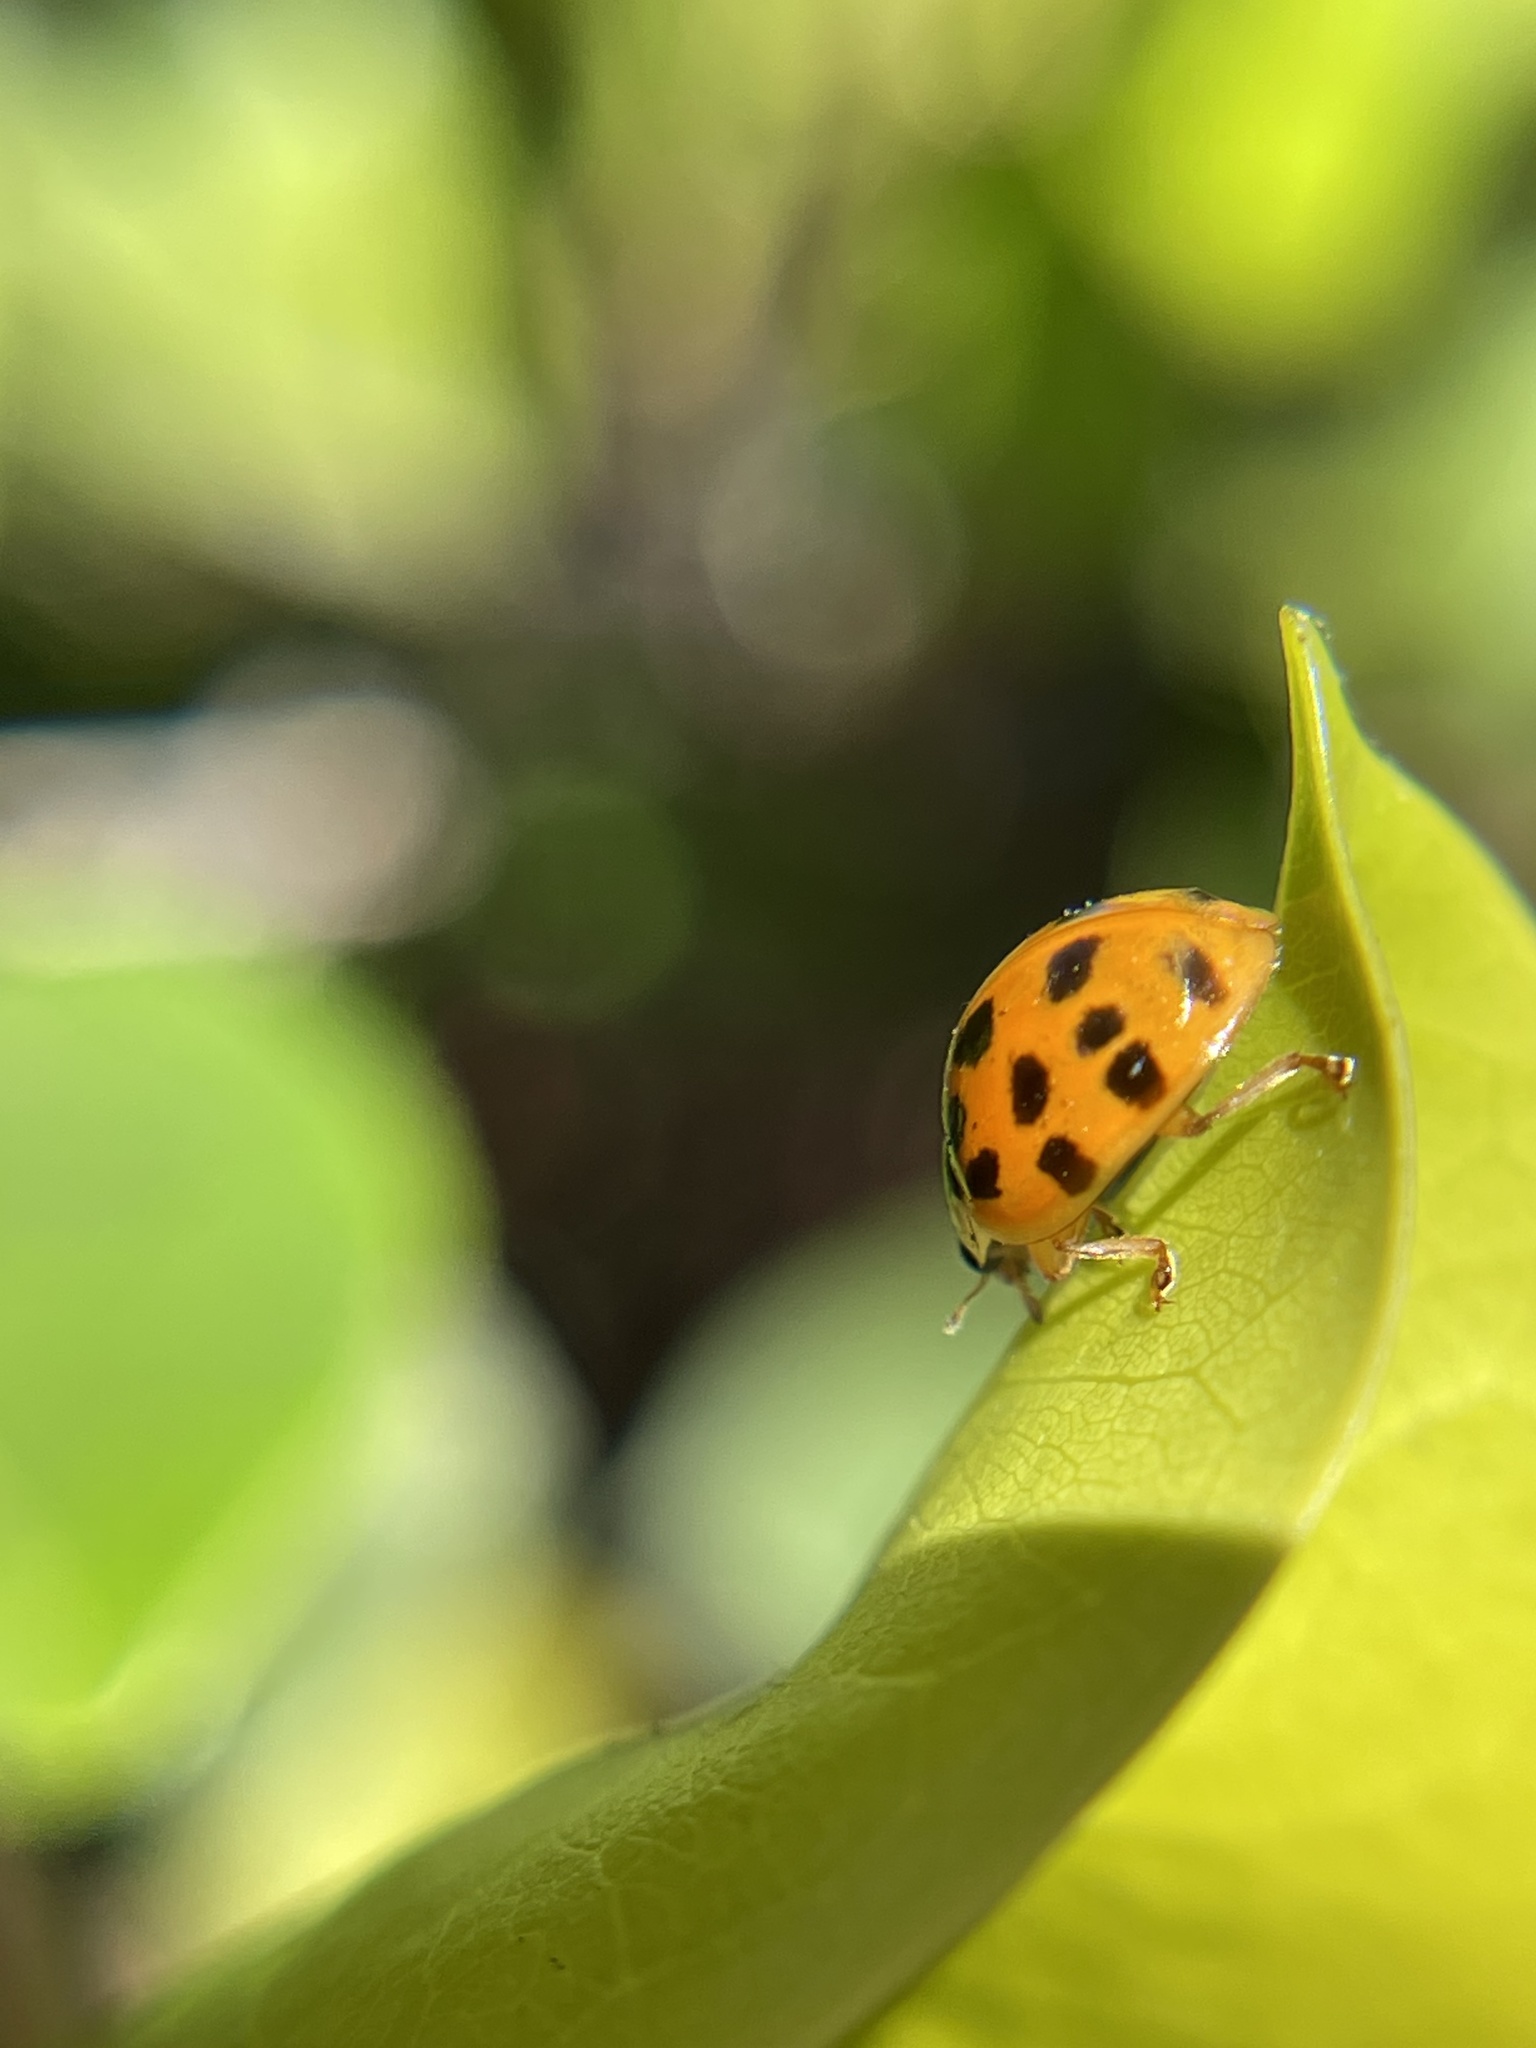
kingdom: Animalia
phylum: Arthropoda
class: Insecta
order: Coleoptera
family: Coccinellidae
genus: Harmonia
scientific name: Harmonia axyridis
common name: Harlequin ladybird
